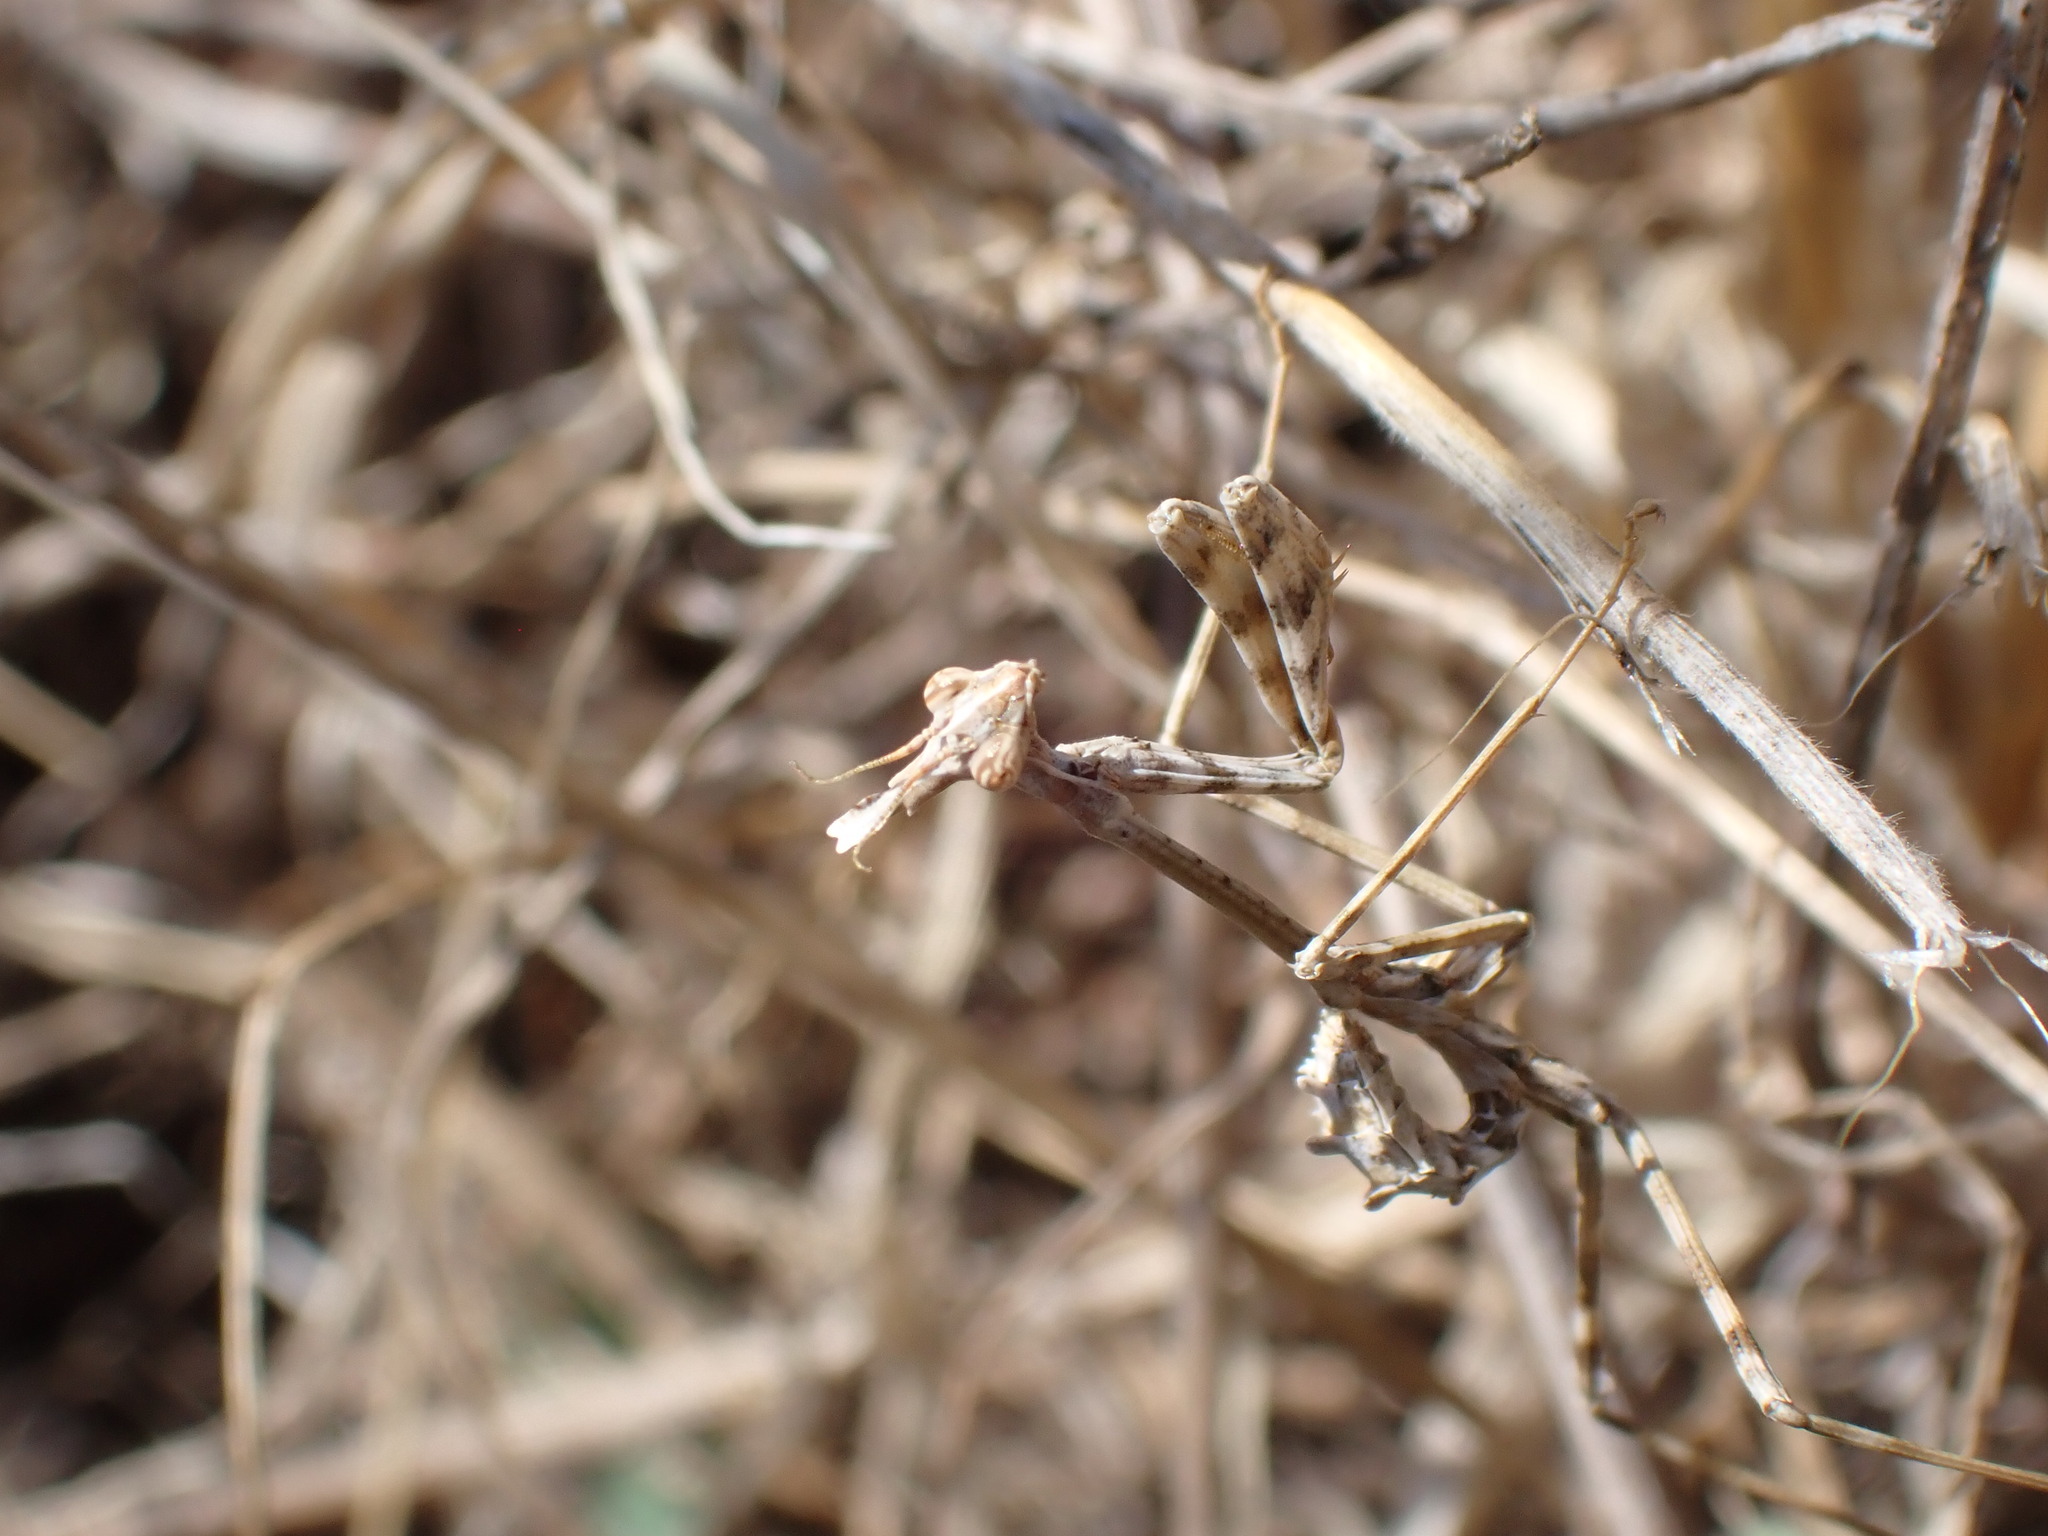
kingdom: Animalia
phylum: Arthropoda
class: Insecta
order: Mantodea
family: Empusidae
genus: Empusa
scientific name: Empusa pennata
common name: Conehead mantis
